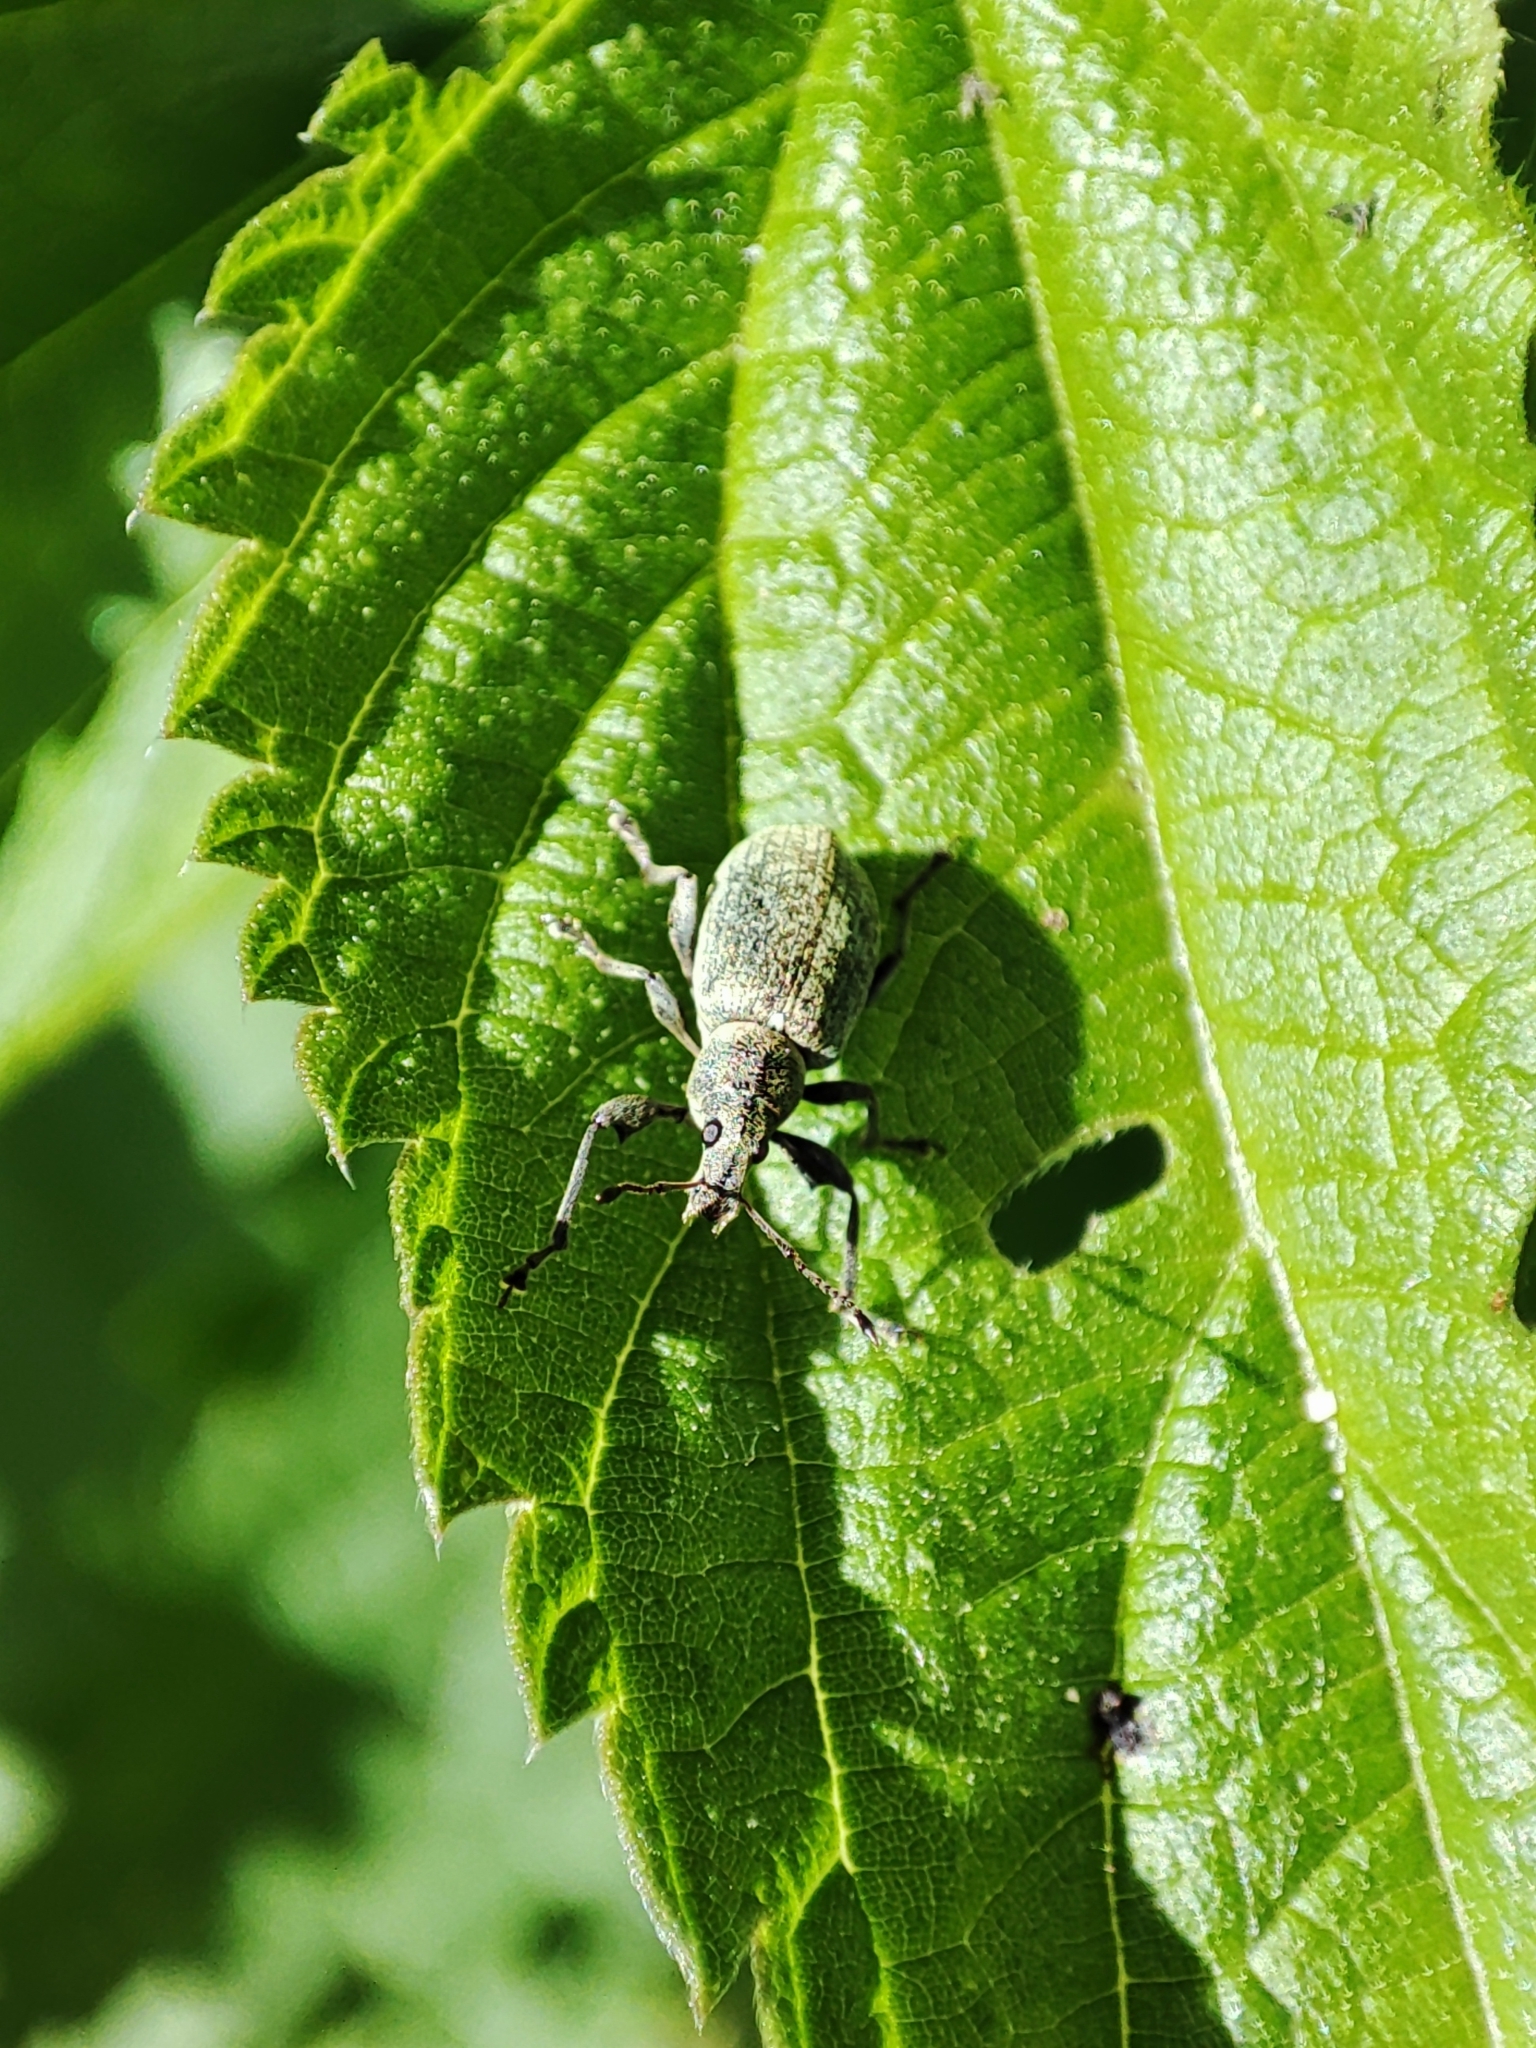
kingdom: Animalia
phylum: Arthropoda
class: Insecta
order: Coleoptera
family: Curculionidae
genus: Phyllobius
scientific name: Phyllobius pomaceus
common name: Green nettle weevil
